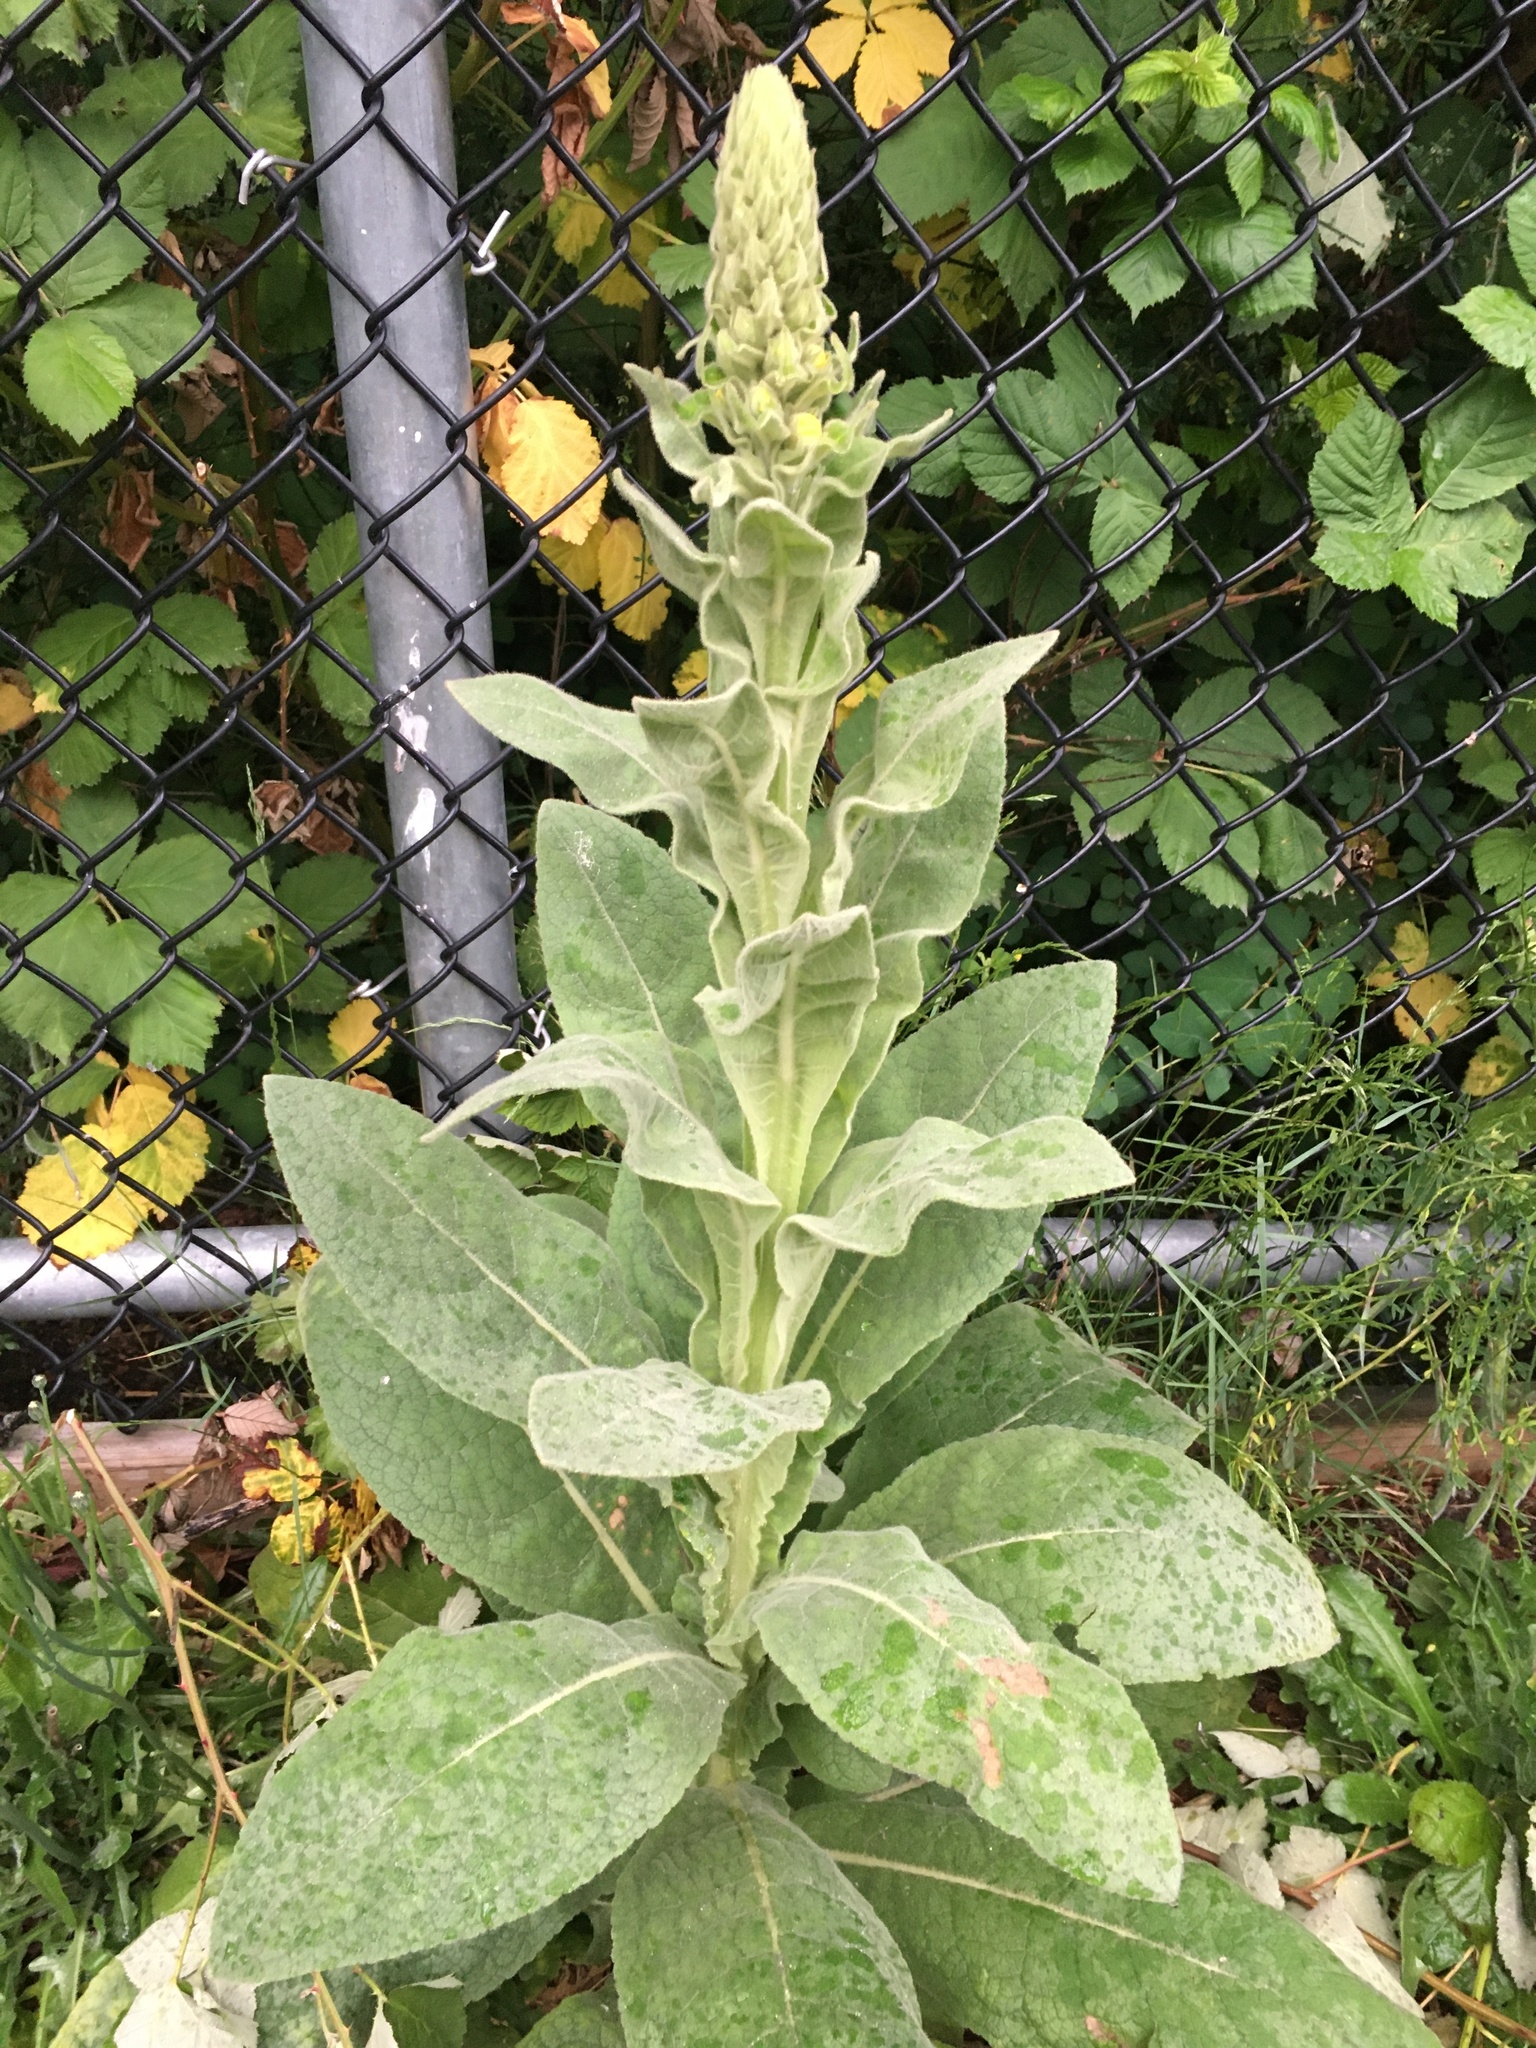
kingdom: Plantae
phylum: Tracheophyta
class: Magnoliopsida
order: Lamiales
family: Scrophulariaceae
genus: Verbascum
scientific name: Verbascum thapsus
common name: Common mullein
